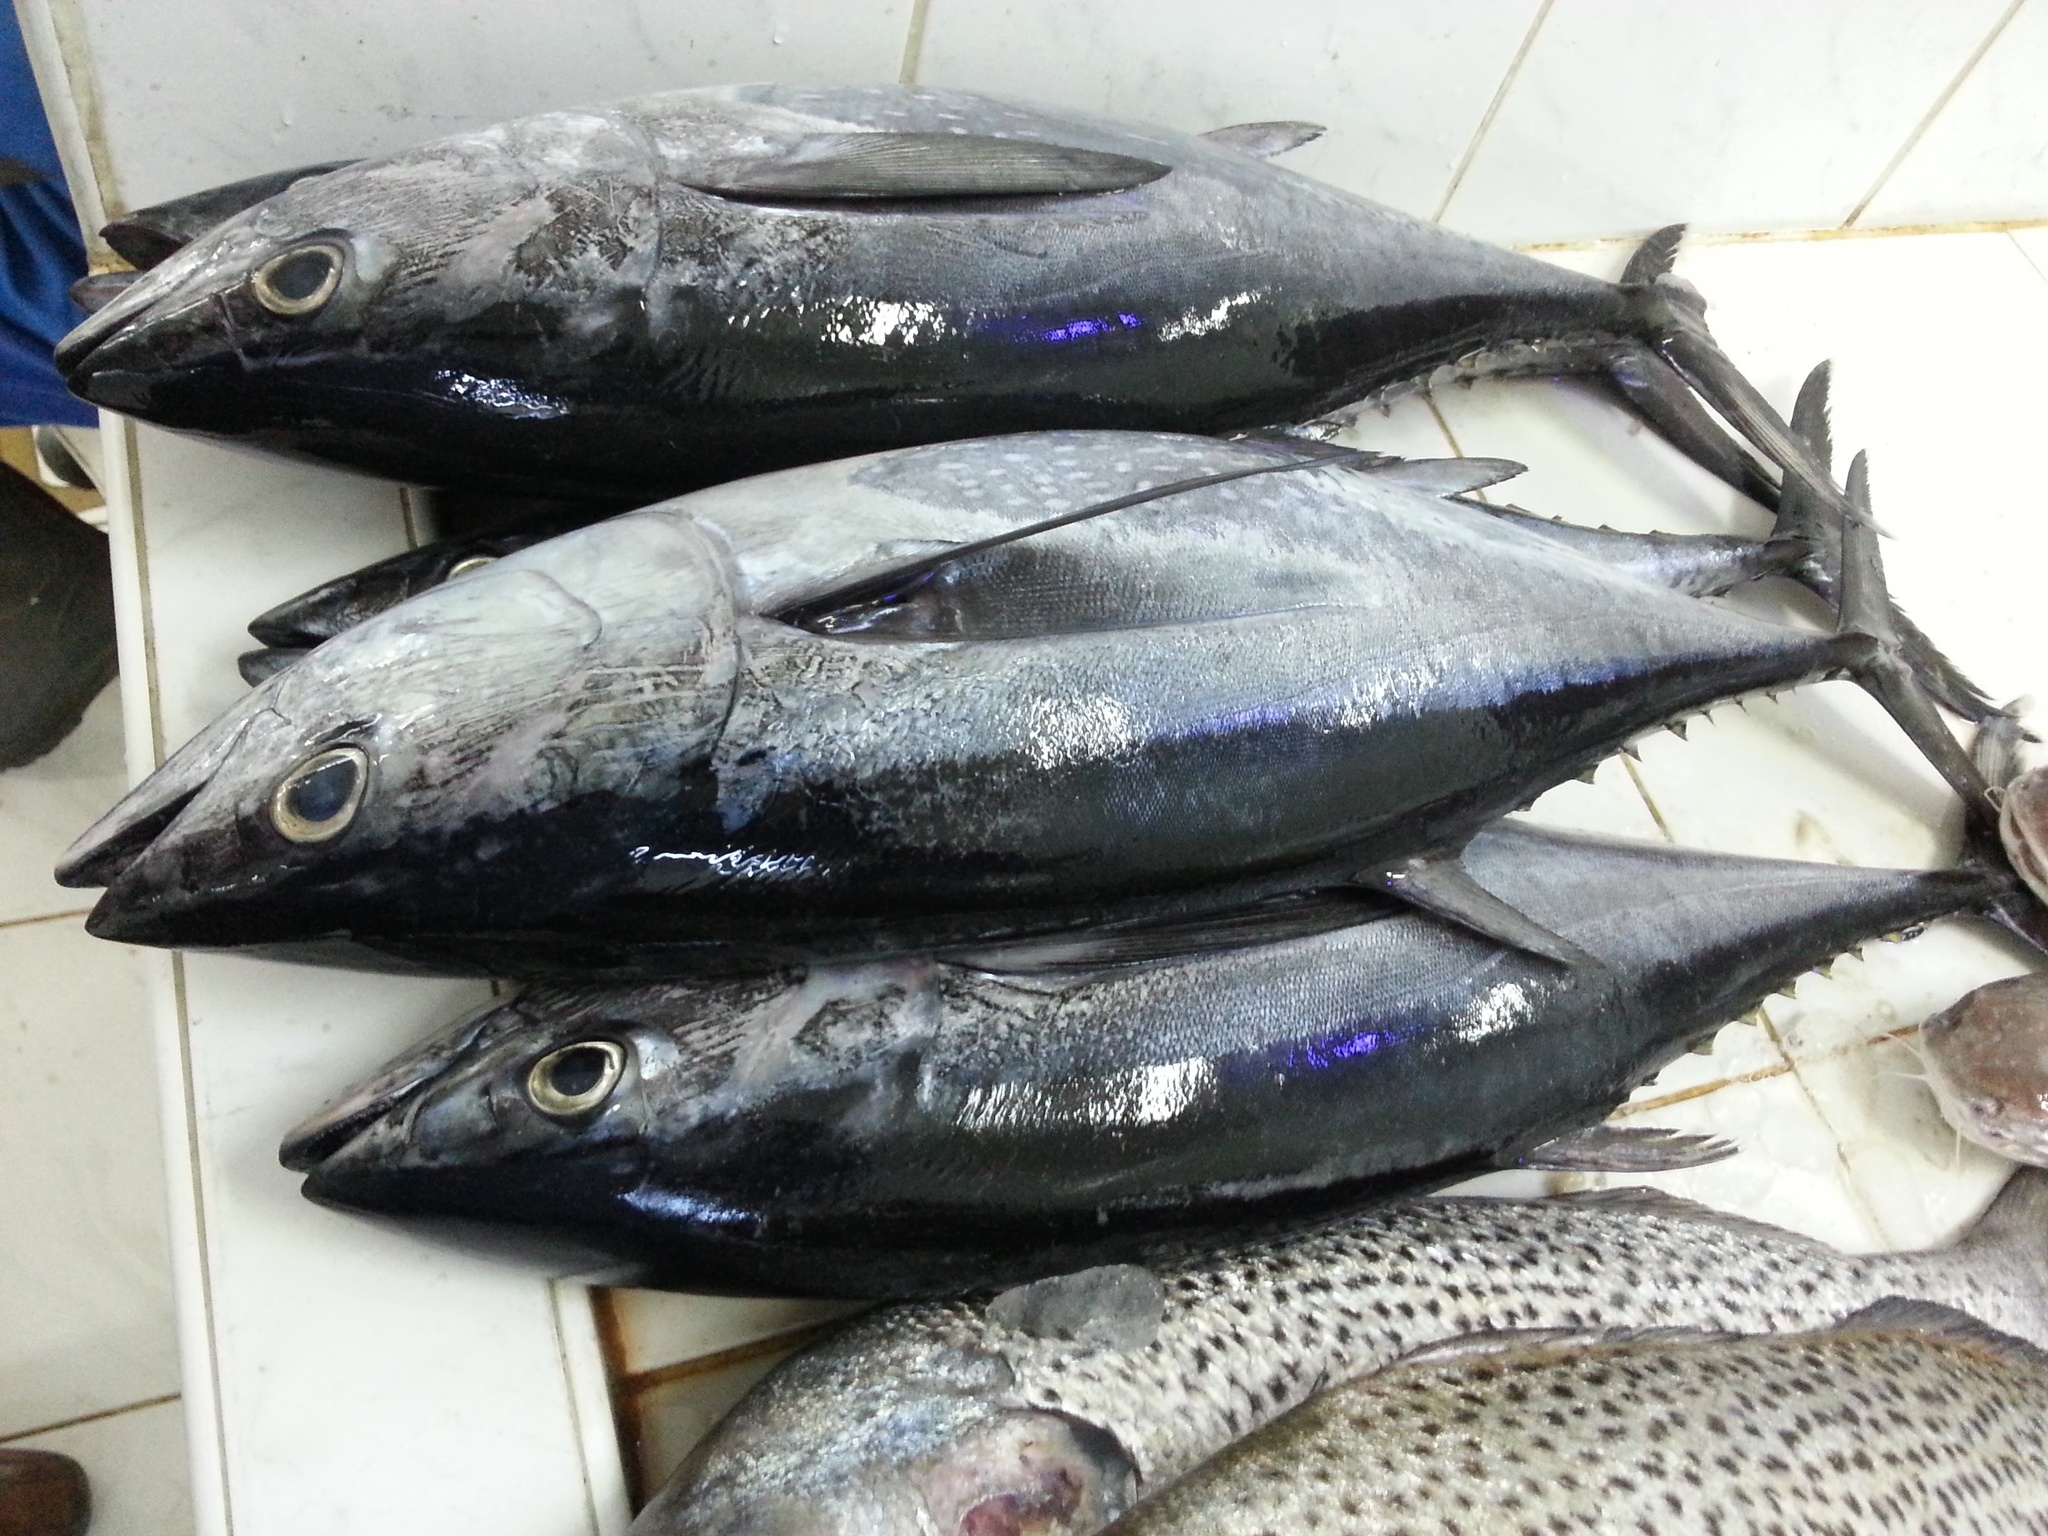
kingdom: Animalia
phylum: Chordata
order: Perciformes
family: Scombridae
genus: Thunnus
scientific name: Thunnus tonggol
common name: Longtail tuna
